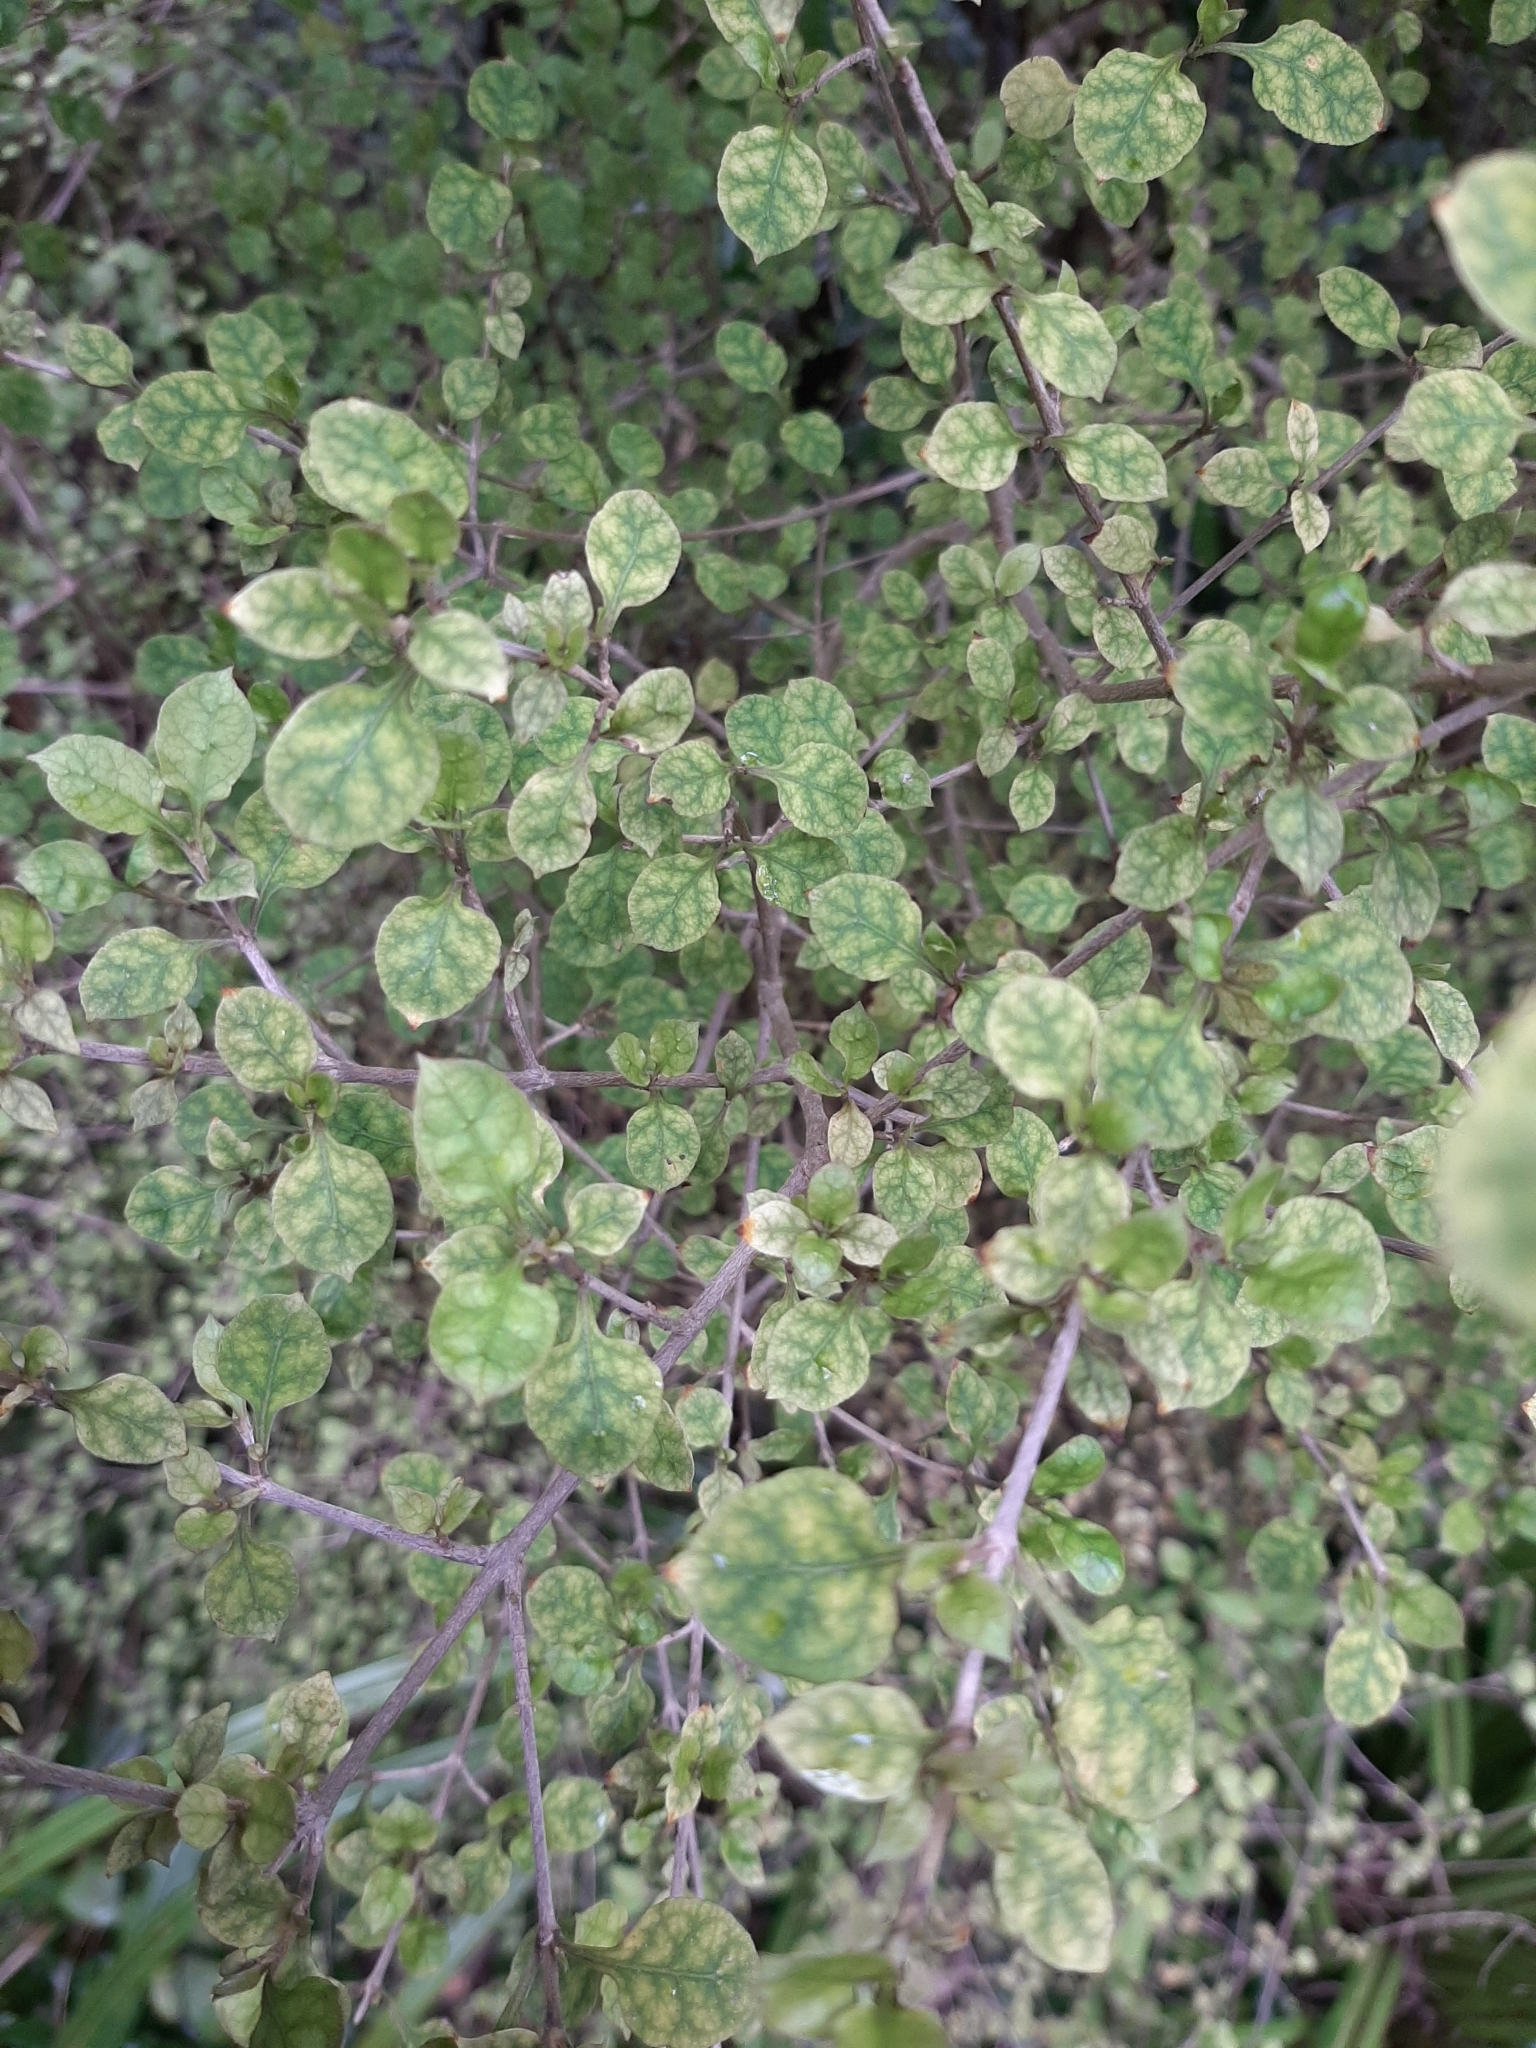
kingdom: Plantae
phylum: Tracheophyta
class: Magnoliopsida
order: Gentianales
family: Rubiaceae
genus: Coprosma
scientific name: Coprosma areolata
